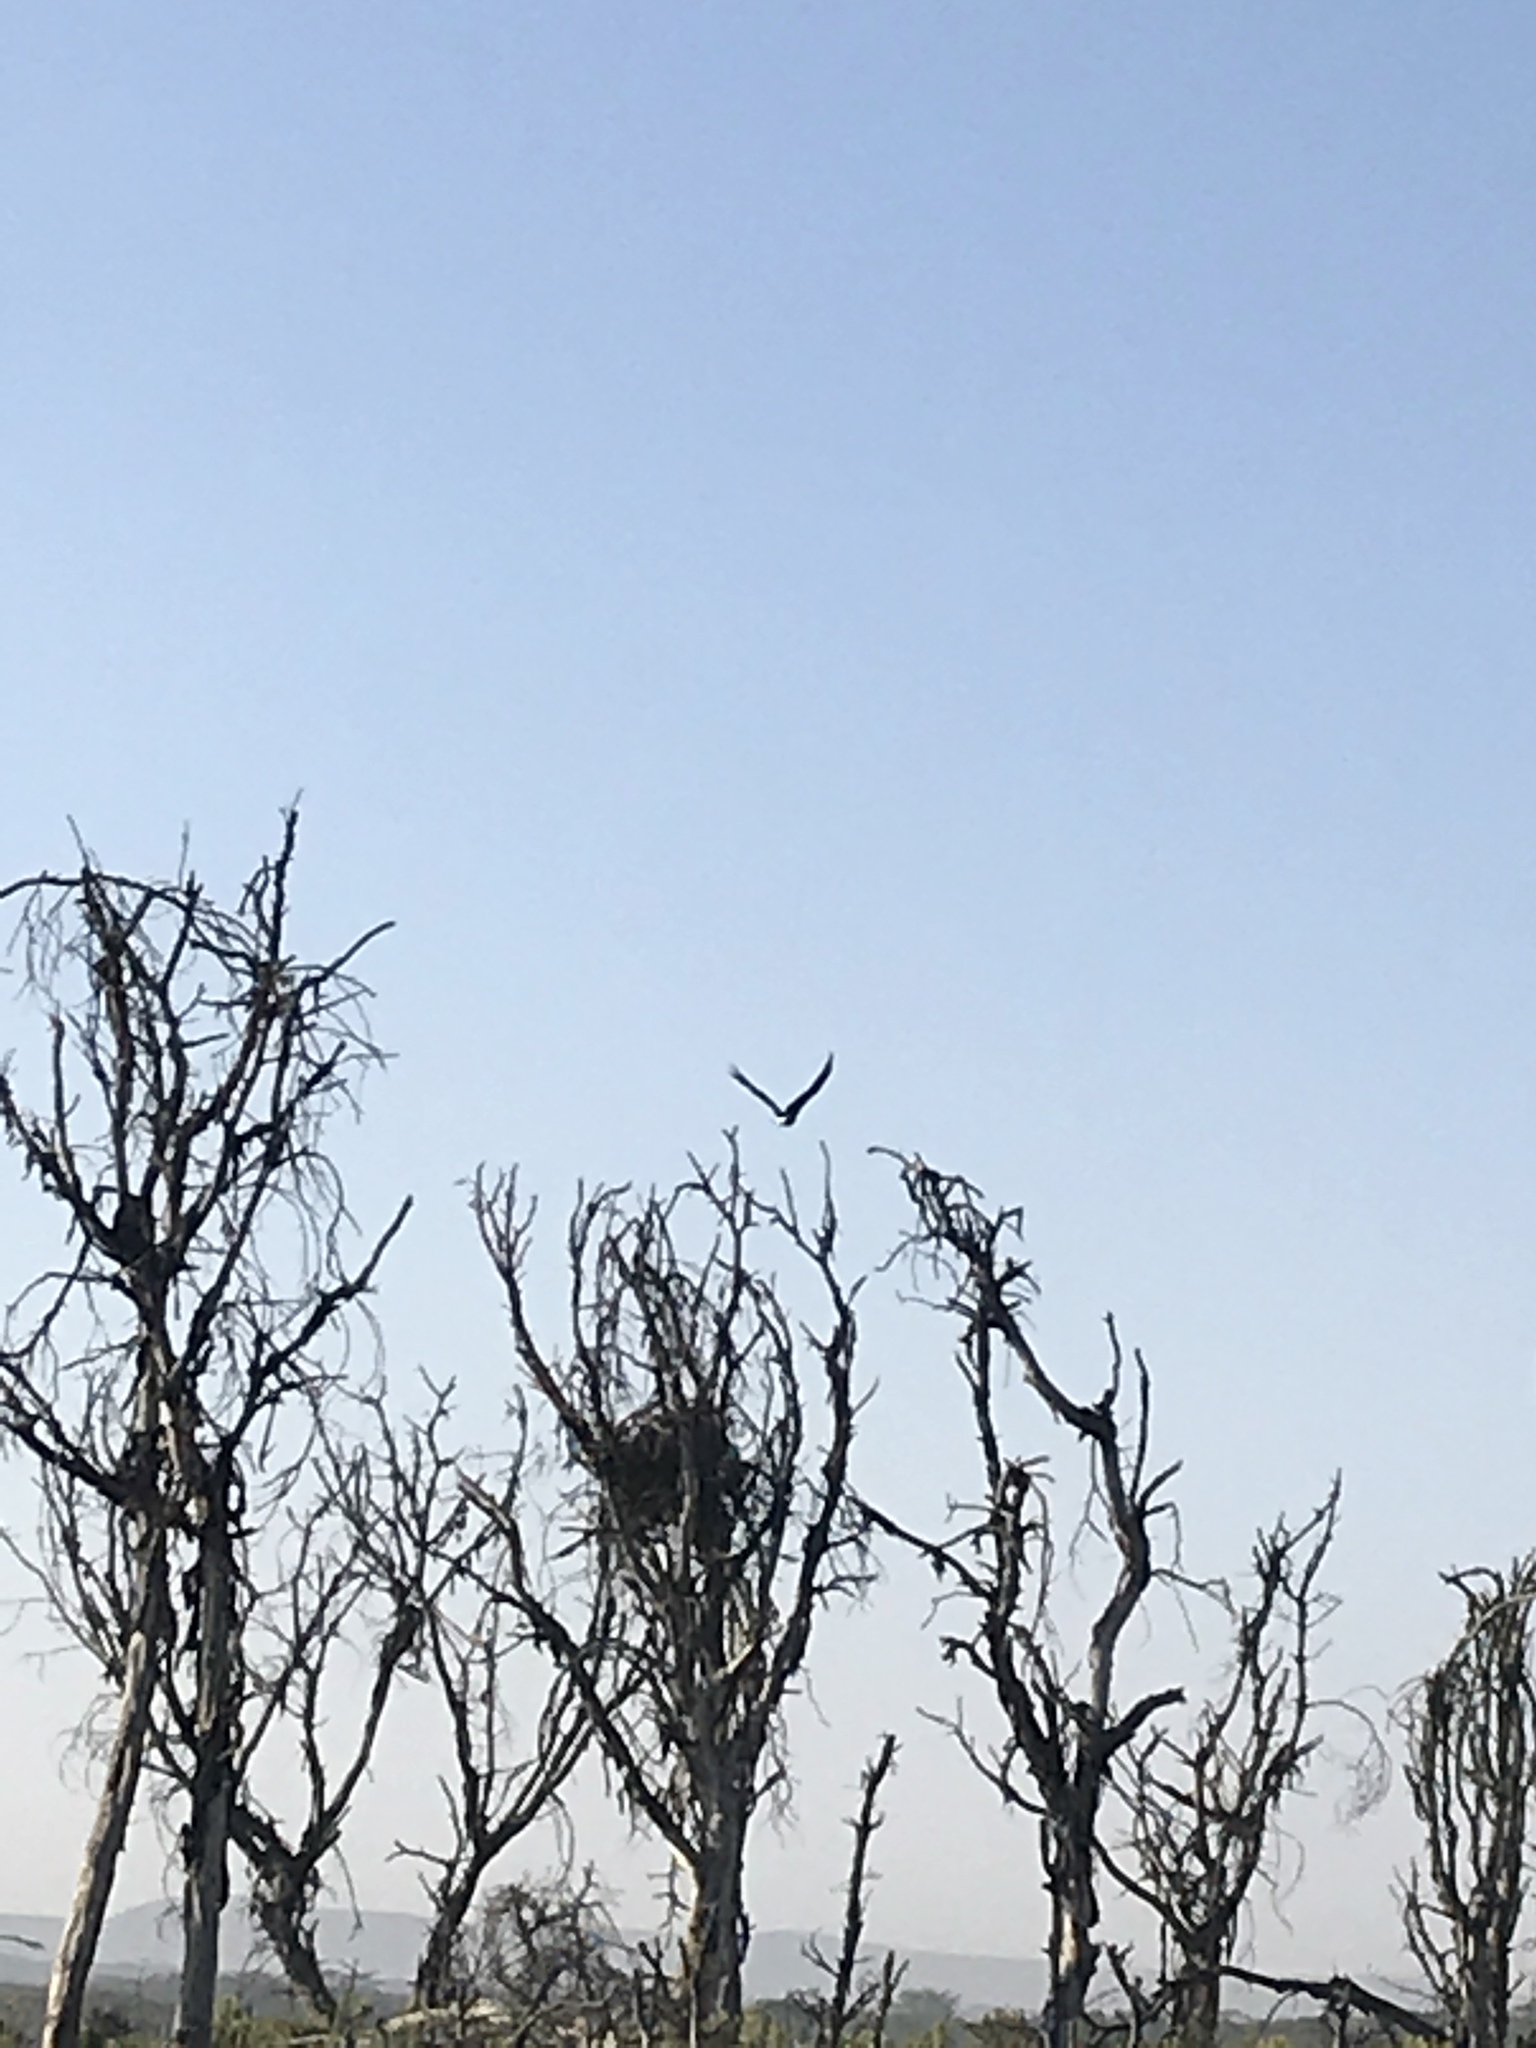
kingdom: Animalia
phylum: Chordata
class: Aves
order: Accipitriformes
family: Accipitridae
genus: Haliaeetus
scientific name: Haliaeetus vocifer
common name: African fish eagle
